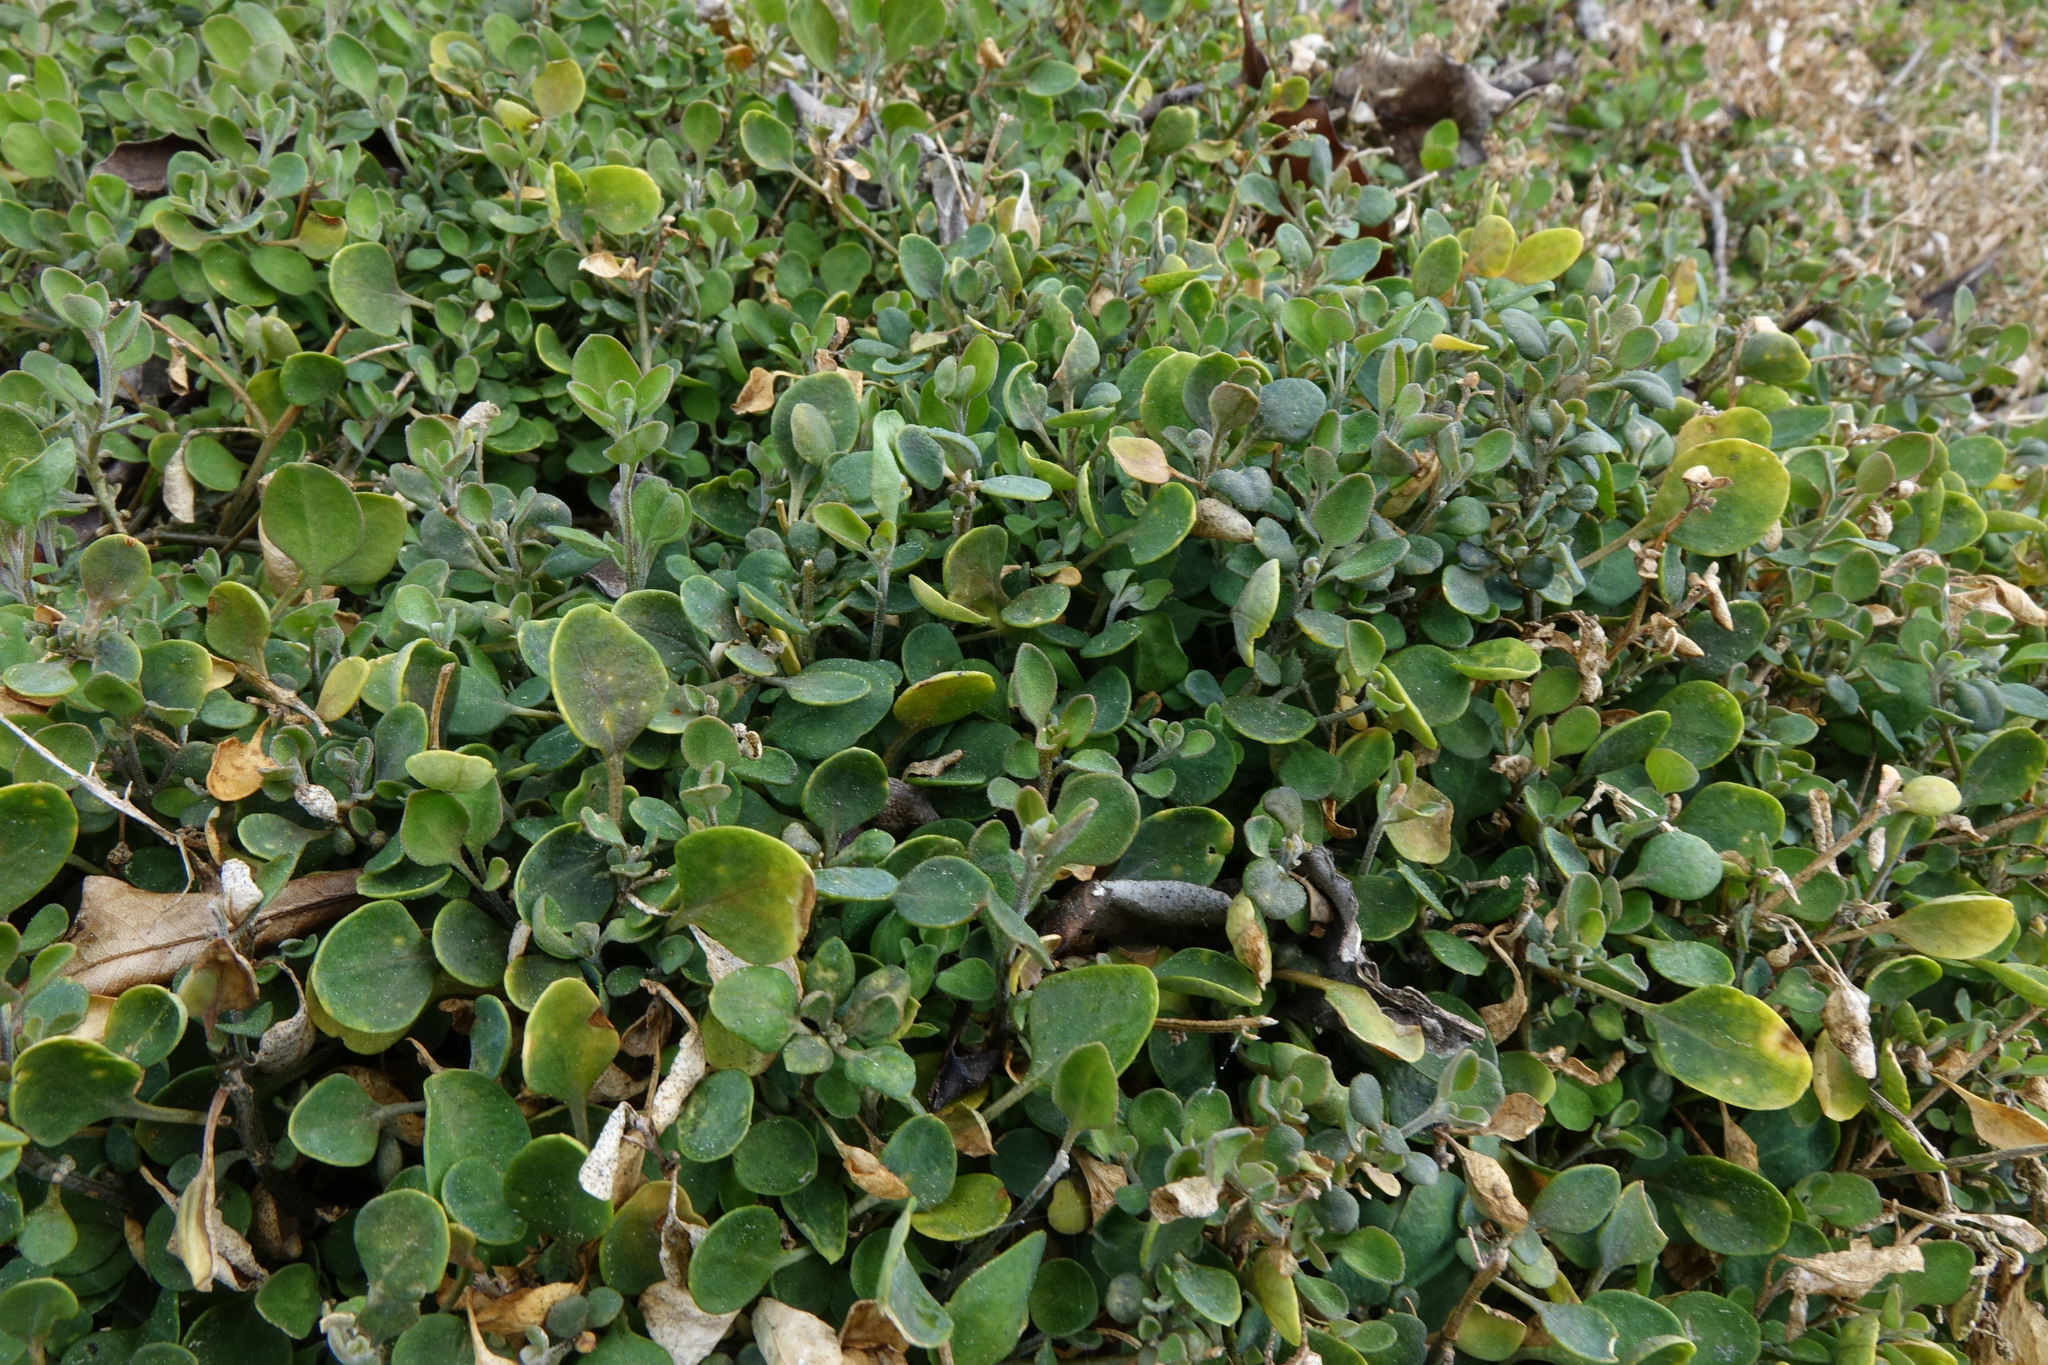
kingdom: Plantae
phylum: Tracheophyta
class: Magnoliopsida
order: Caryophyllales
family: Amaranthaceae
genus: Chenopodium
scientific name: Chenopodium allanii
